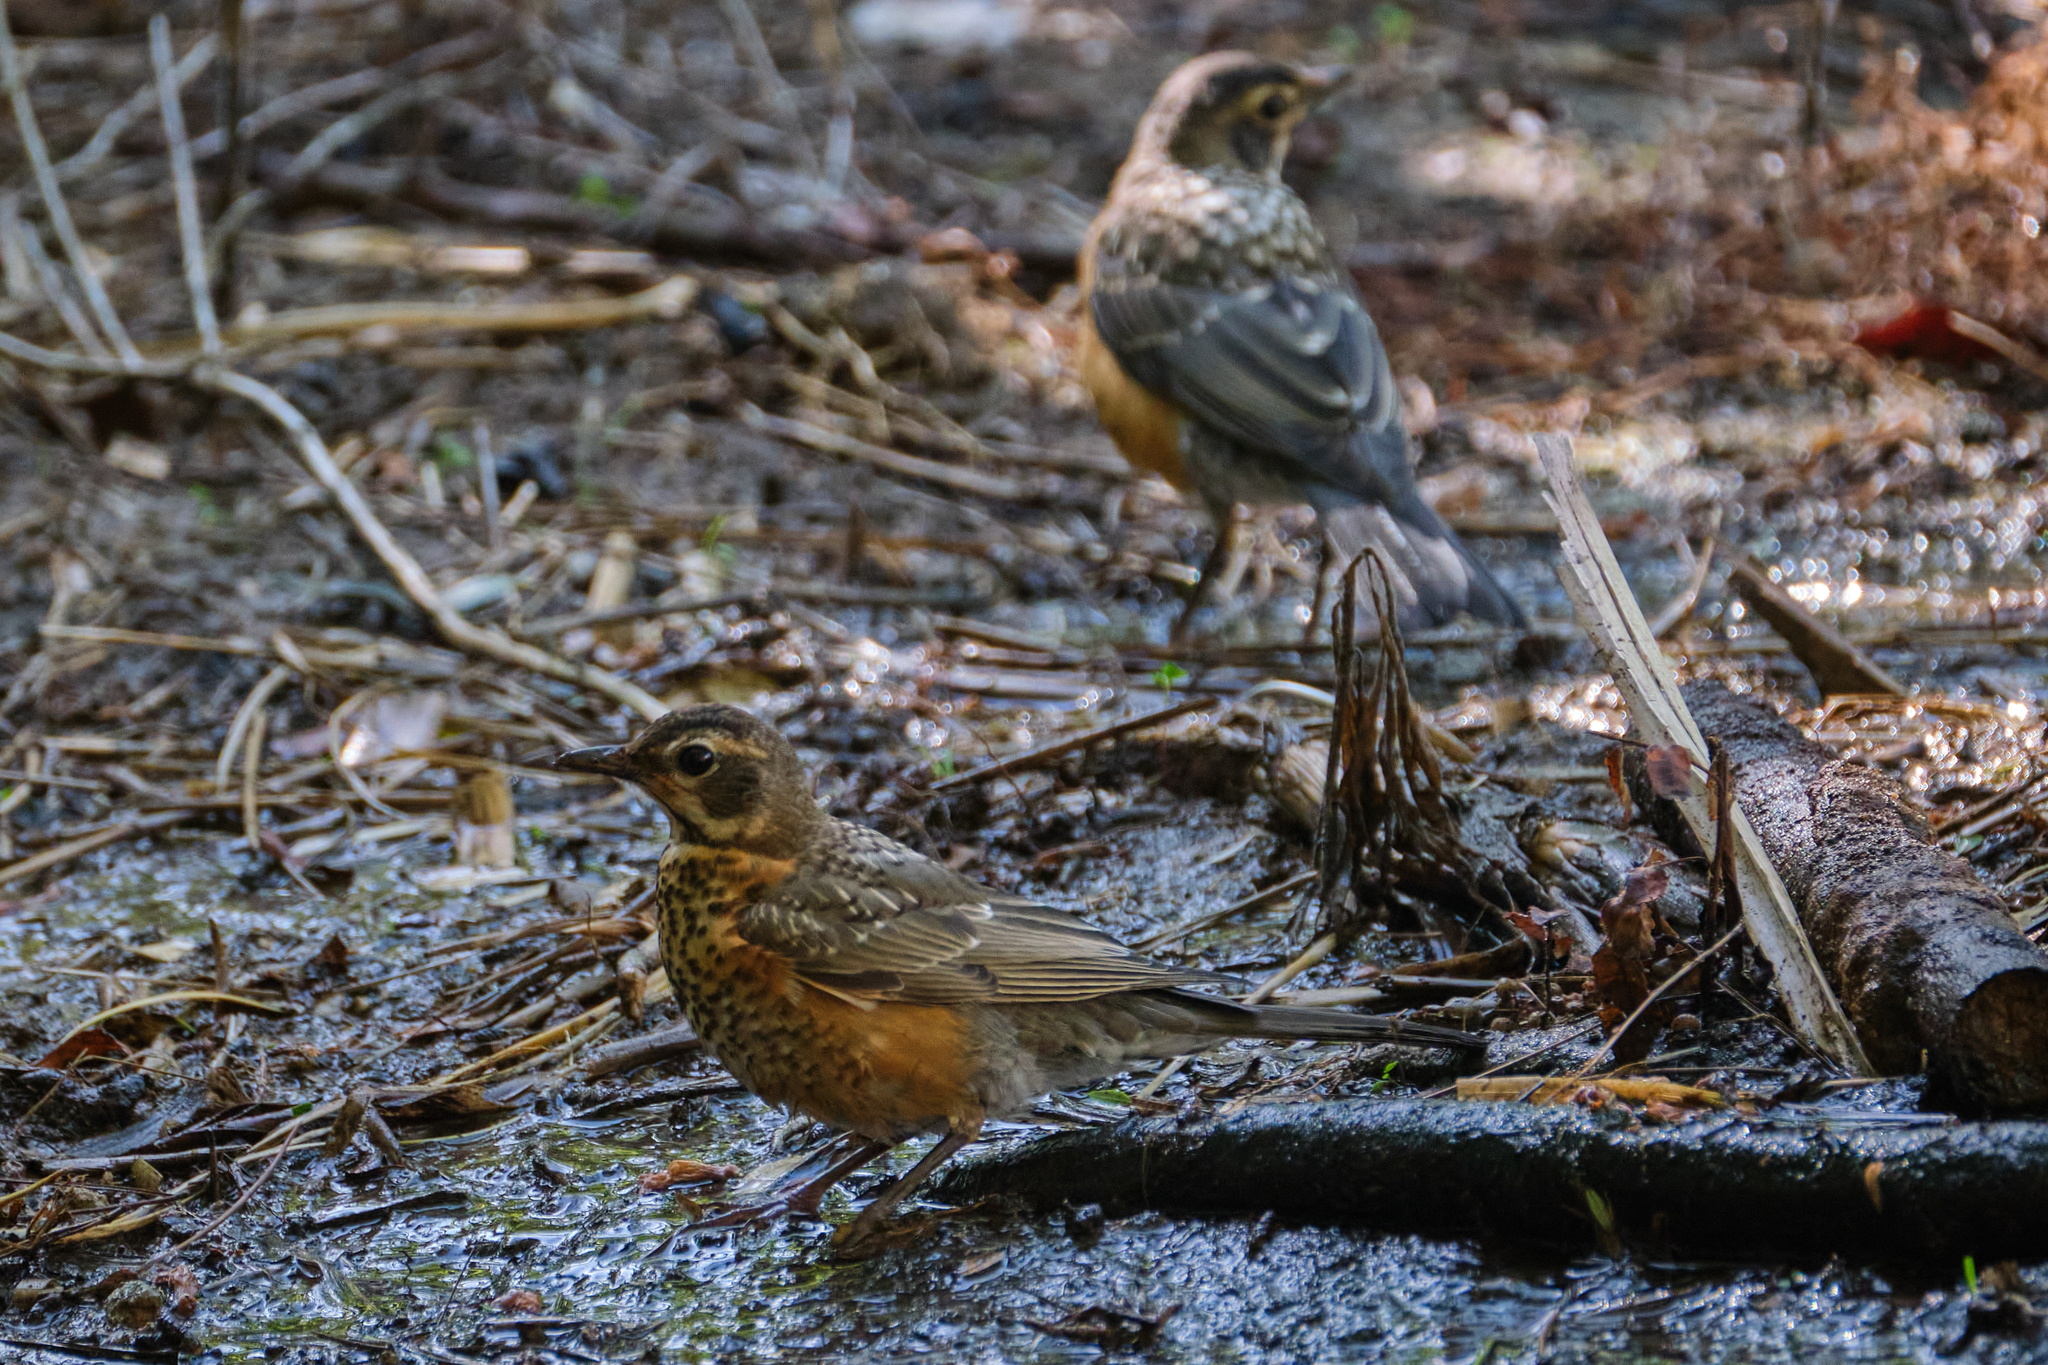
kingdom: Animalia
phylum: Chordata
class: Aves
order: Passeriformes
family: Turdidae
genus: Turdus
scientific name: Turdus migratorius
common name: American robin
